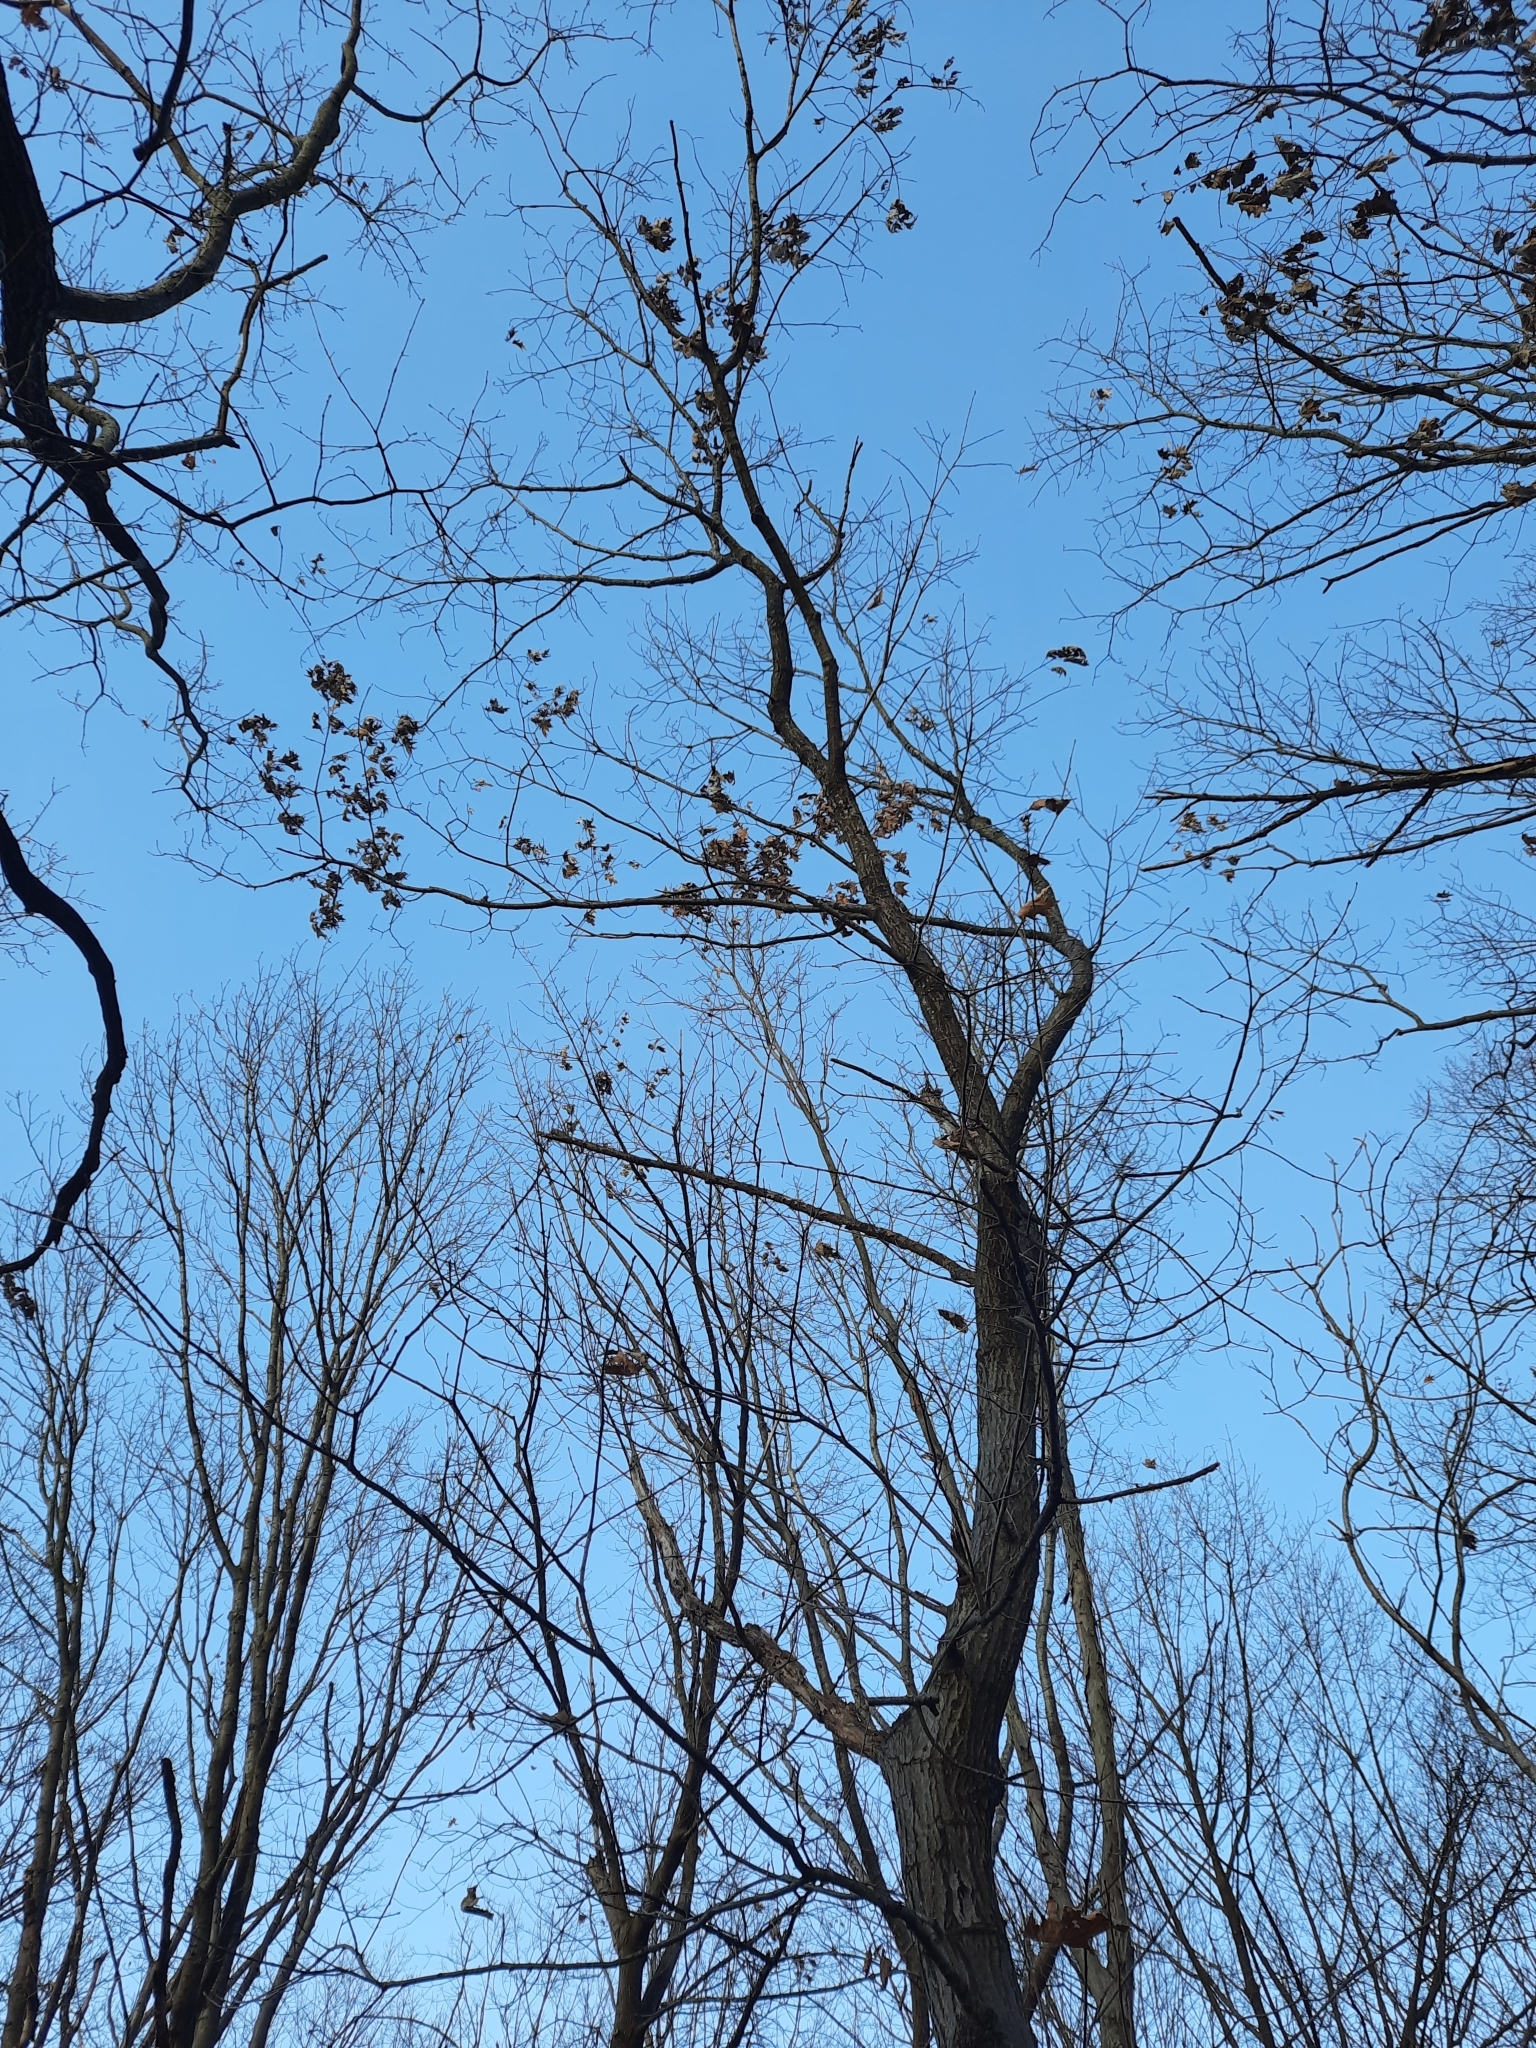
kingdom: Plantae
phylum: Tracheophyta
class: Magnoliopsida
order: Fagales
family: Fagaceae
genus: Quercus
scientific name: Quercus rubra
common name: Red oak
